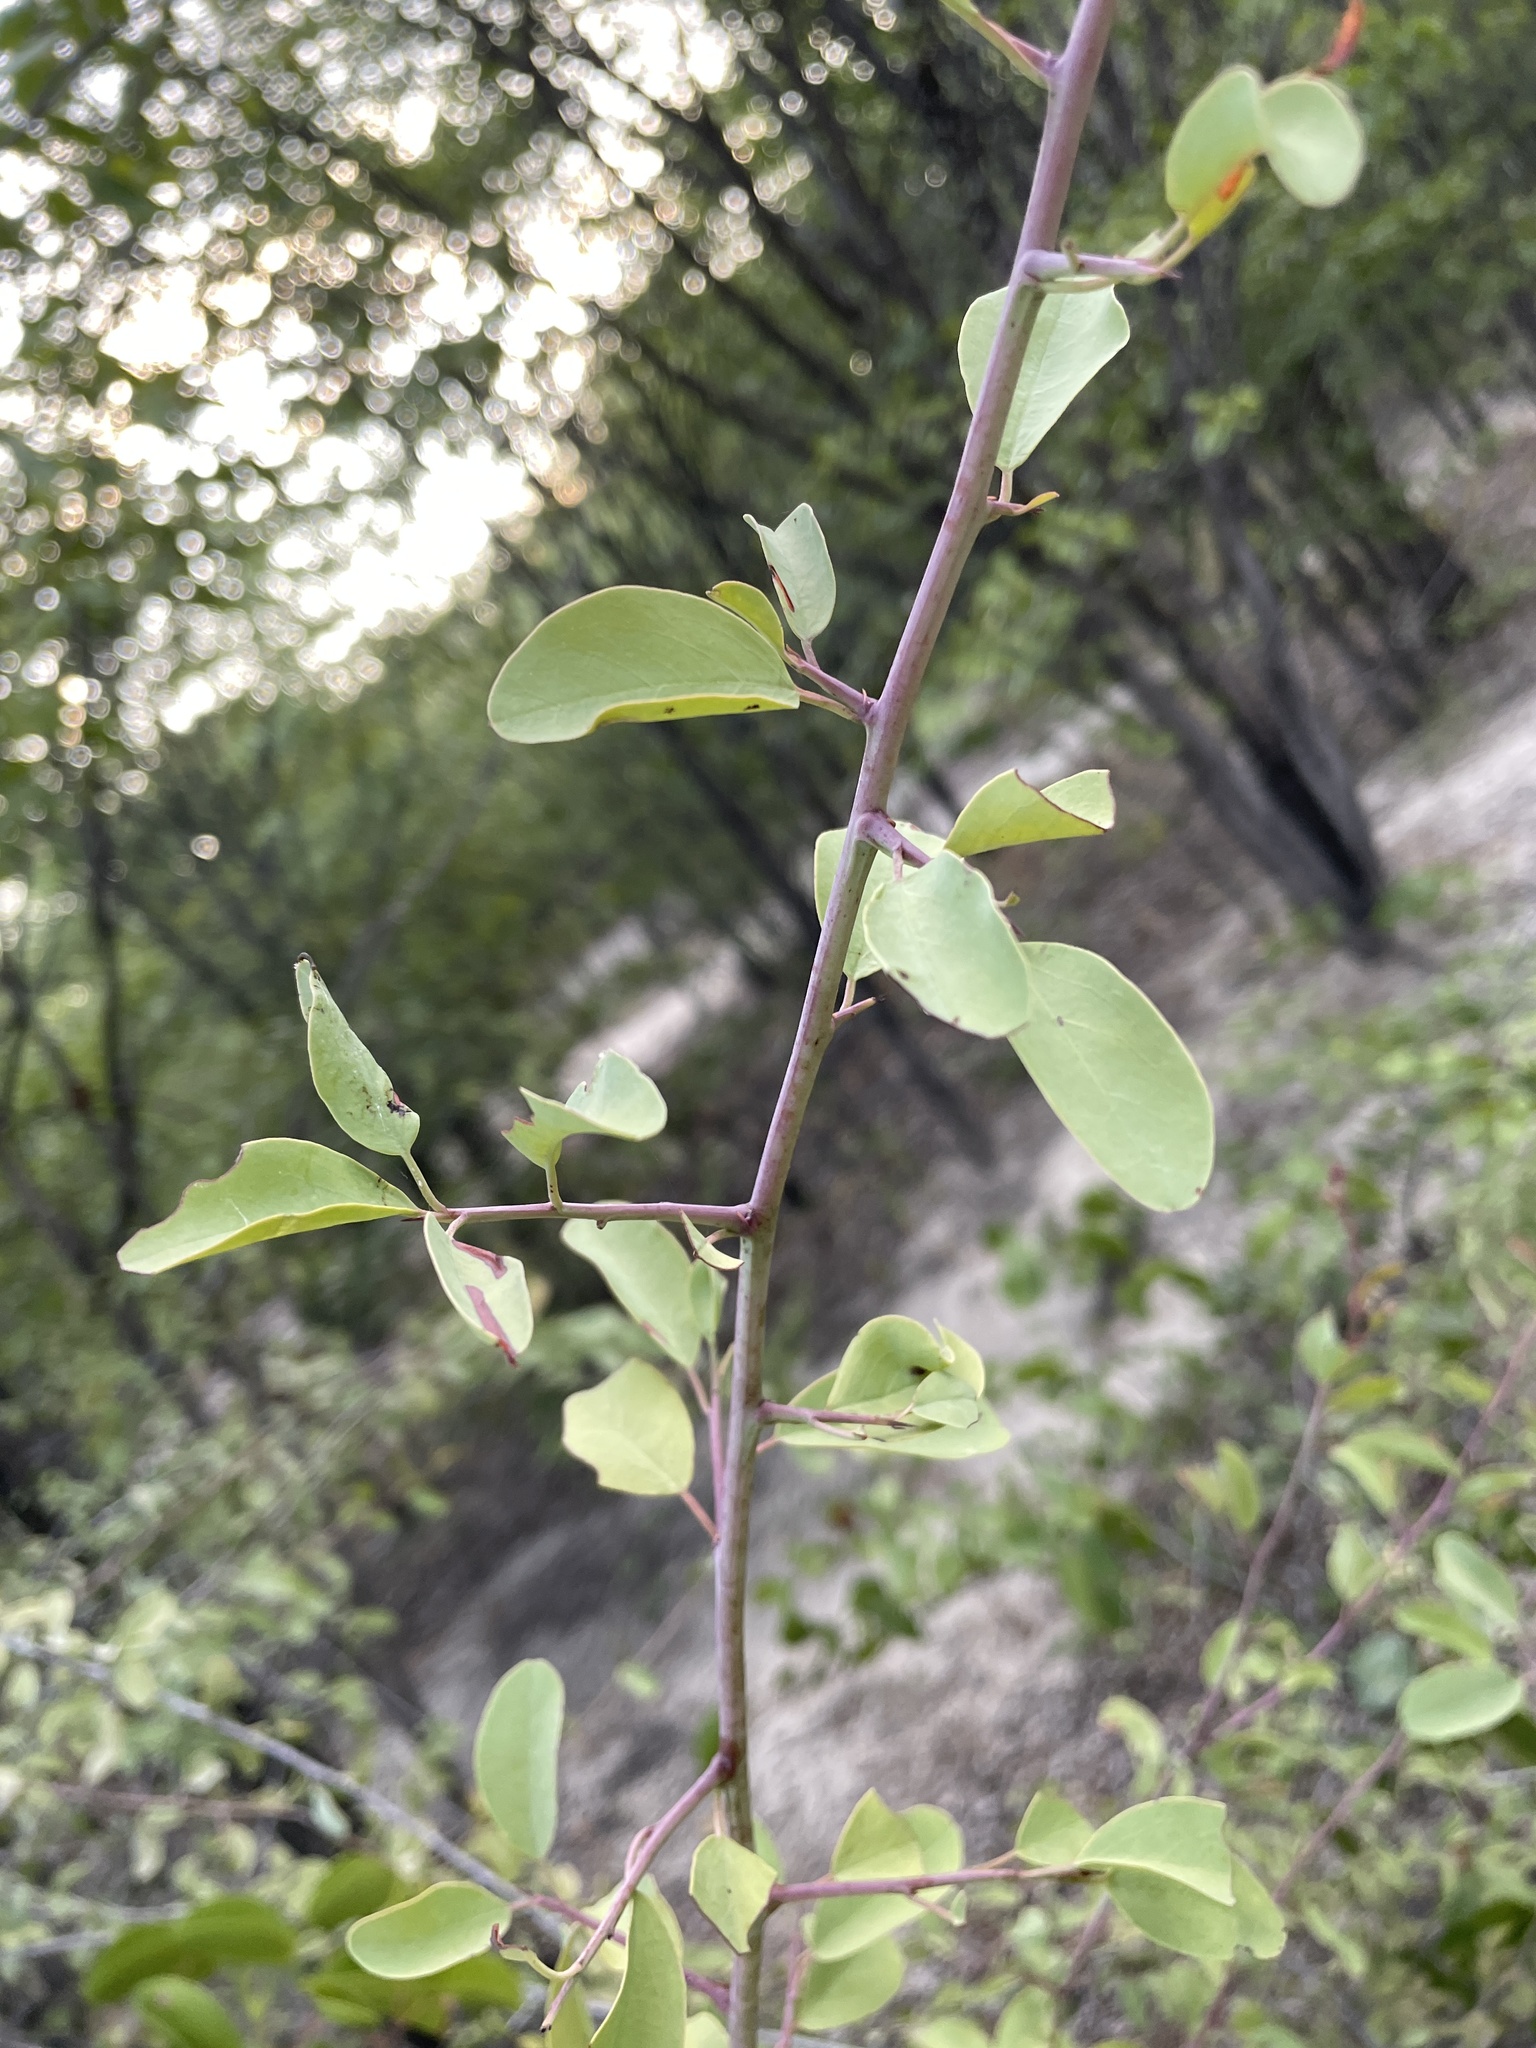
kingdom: Plantae
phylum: Tracheophyta
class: Magnoliopsida
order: Santalales
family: Ximeniaceae
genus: Ximenia
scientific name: Ximenia americana
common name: Tallowwood
